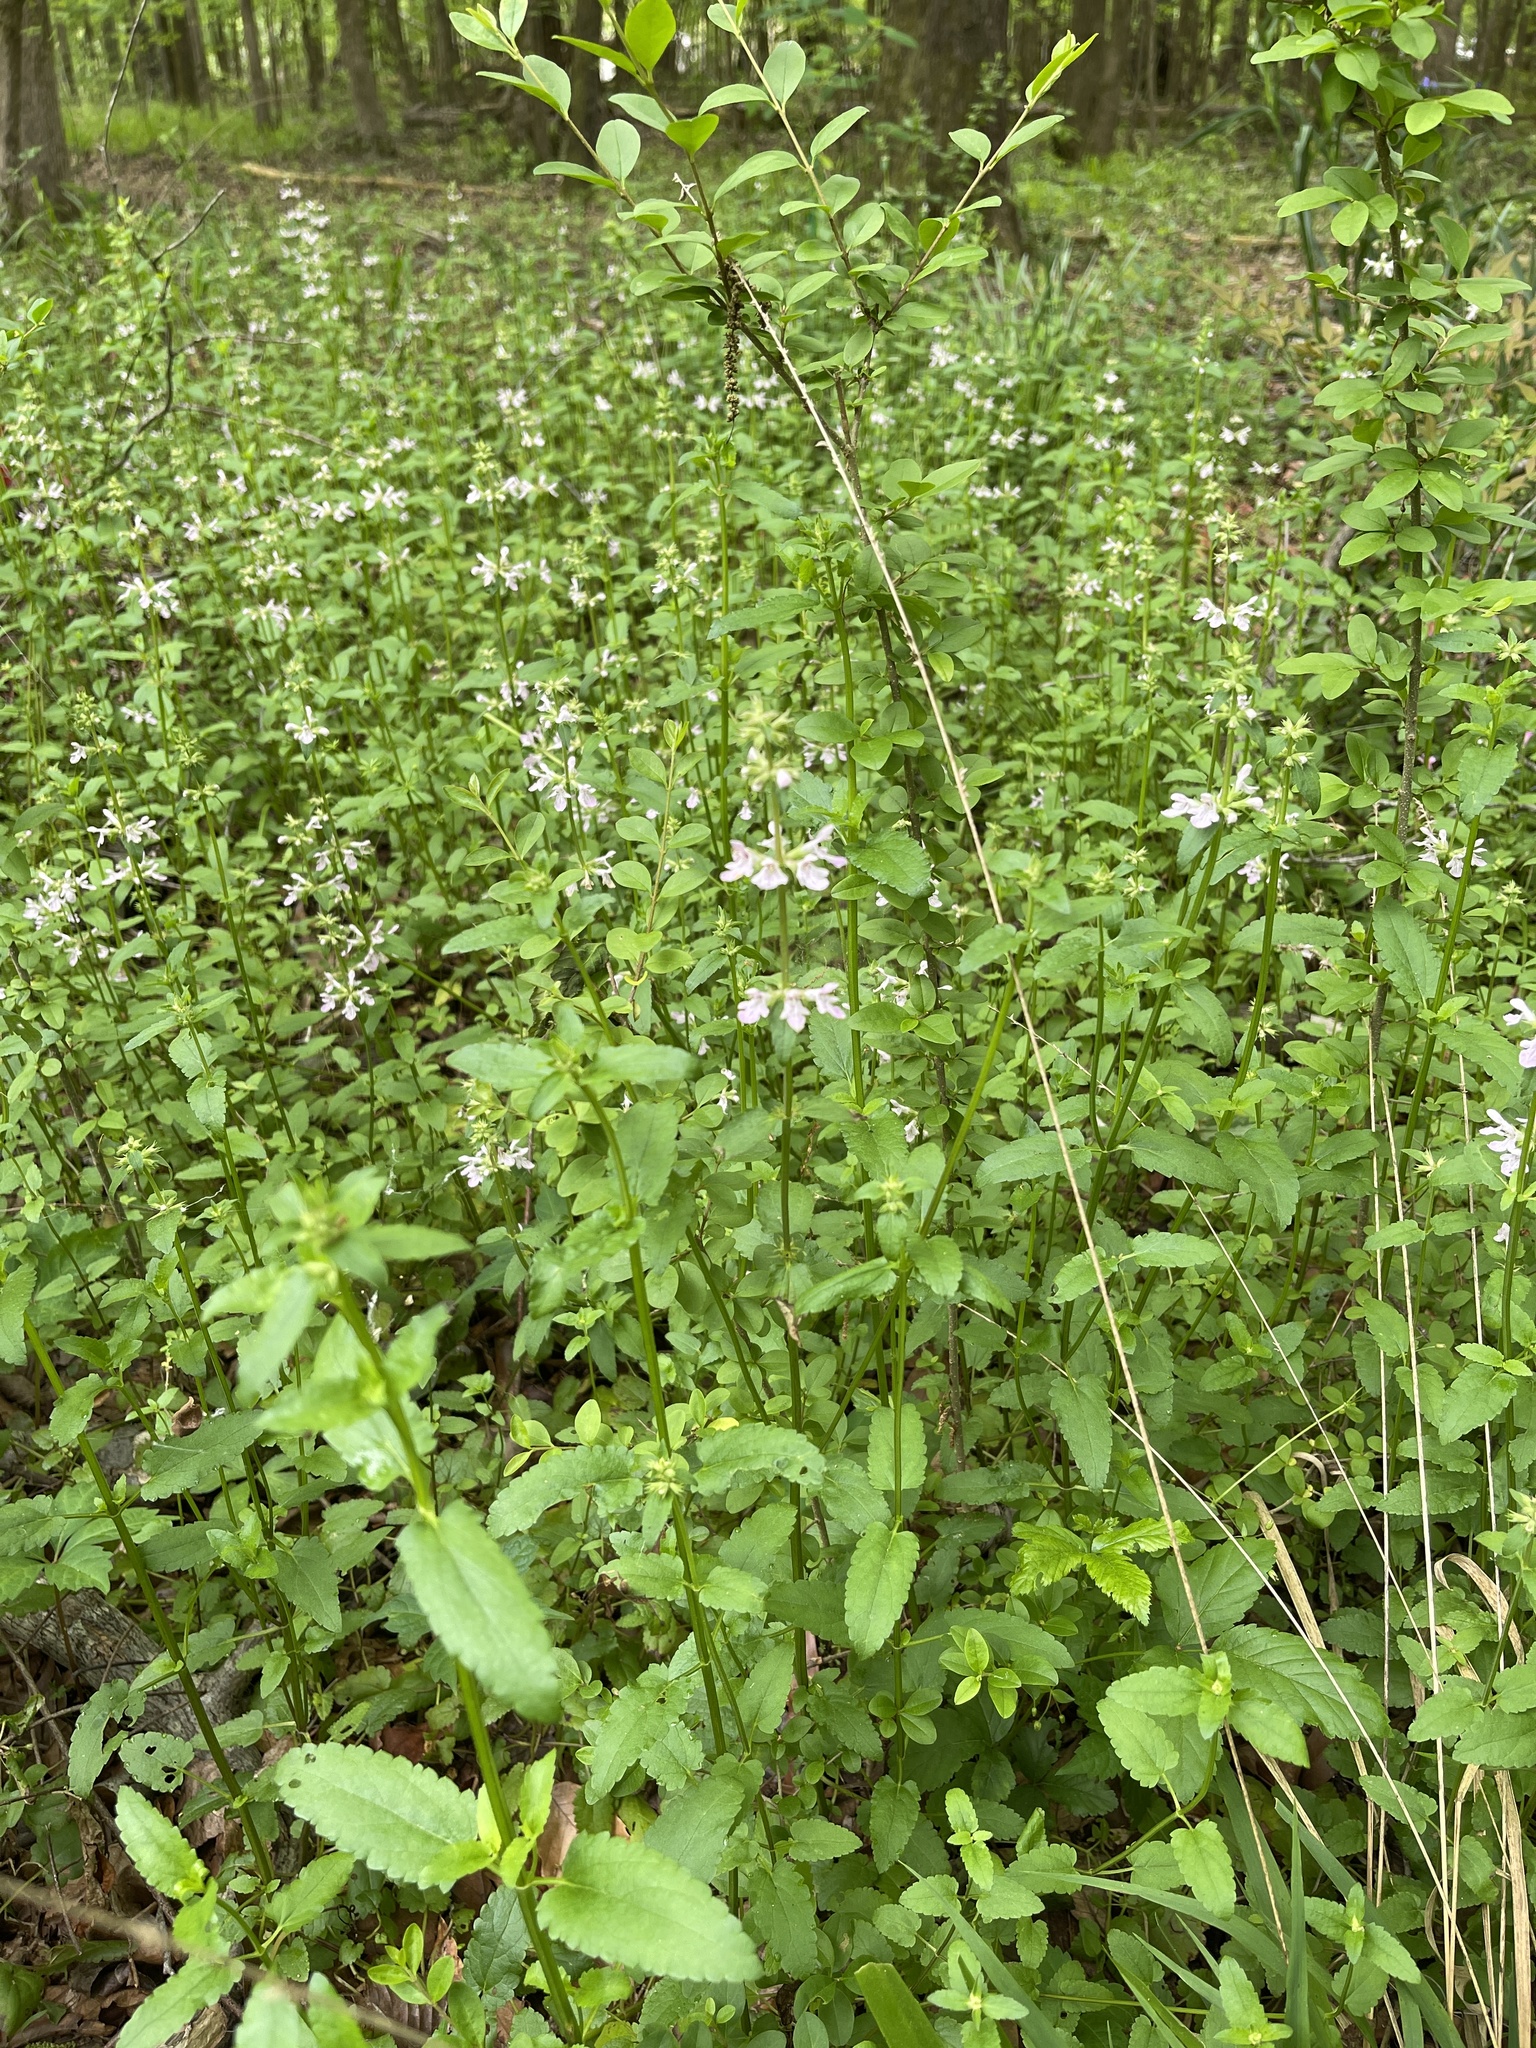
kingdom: Plantae
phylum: Tracheophyta
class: Magnoliopsida
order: Lamiales
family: Lamiaceae
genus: Stachys
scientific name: Stachys floridana
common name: Florida betony
